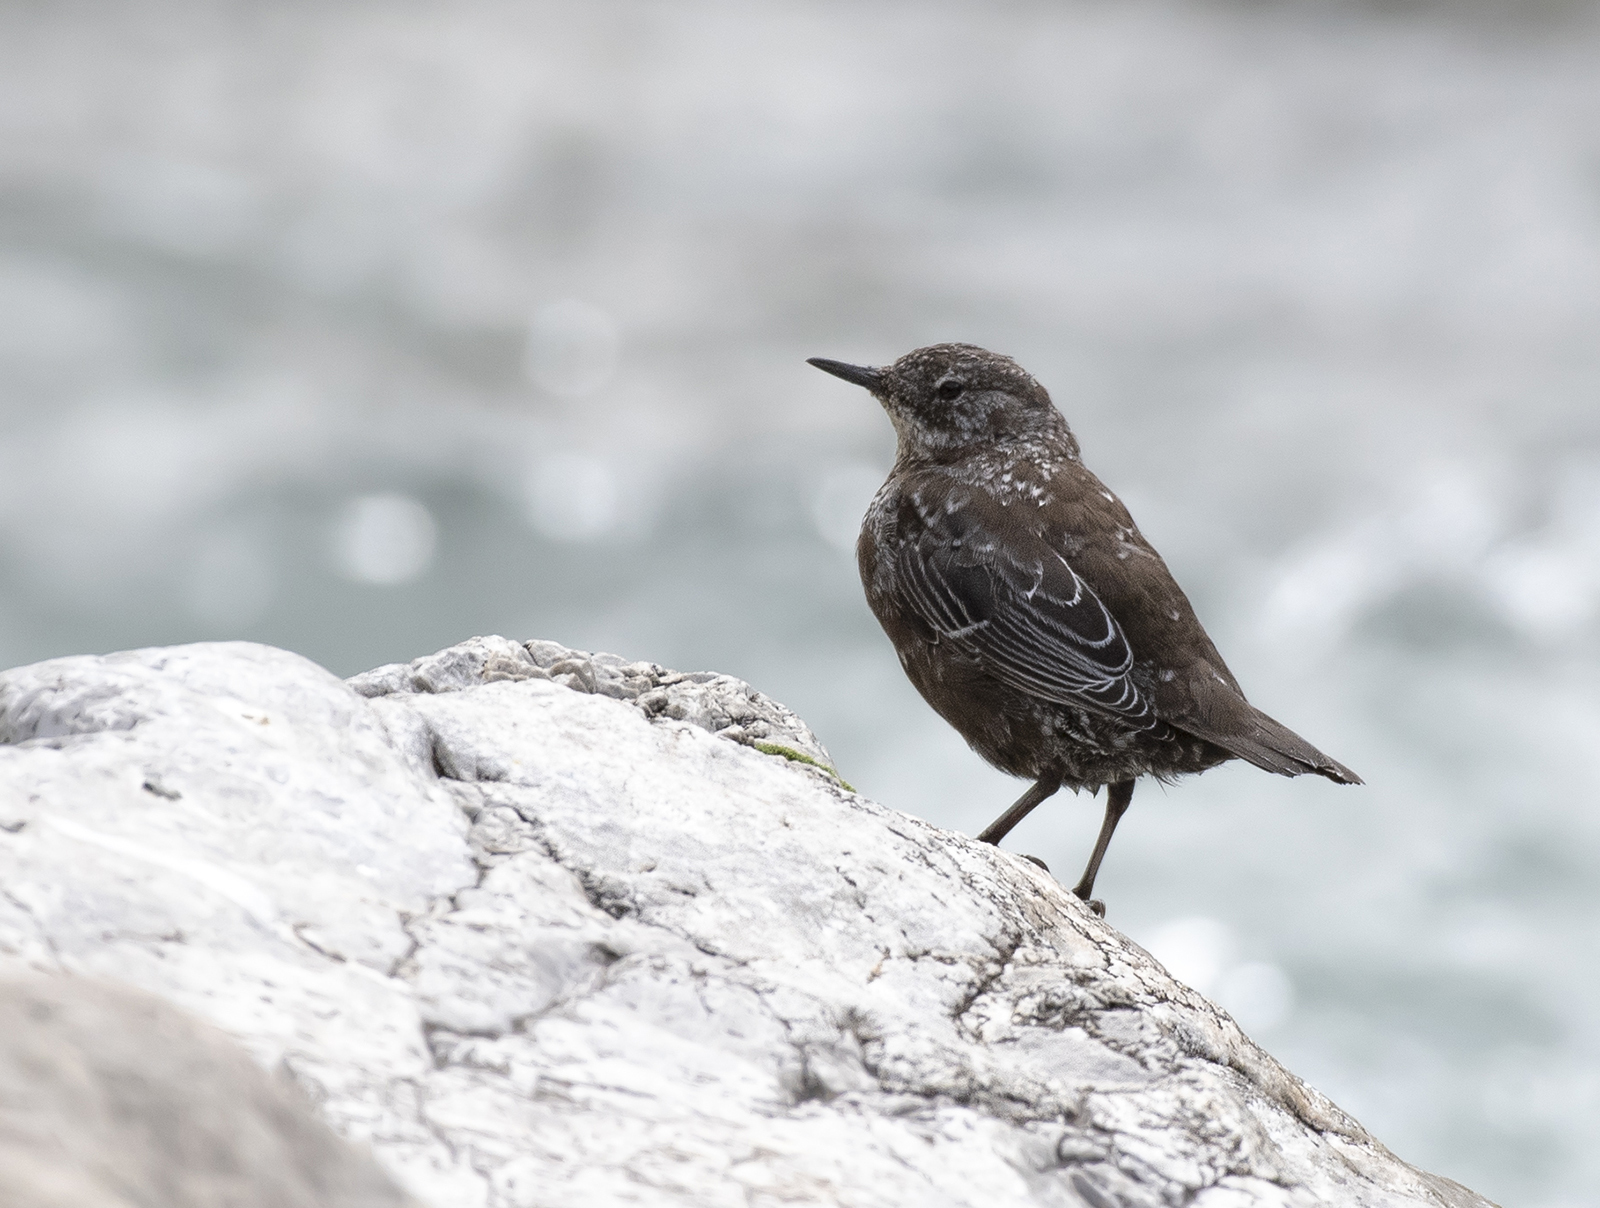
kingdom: Animalia
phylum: Chordata
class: Aves
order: Passeriformes
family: Cinclidae
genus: Cinclus
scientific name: Cinclus cinclus
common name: White-throated dipper
